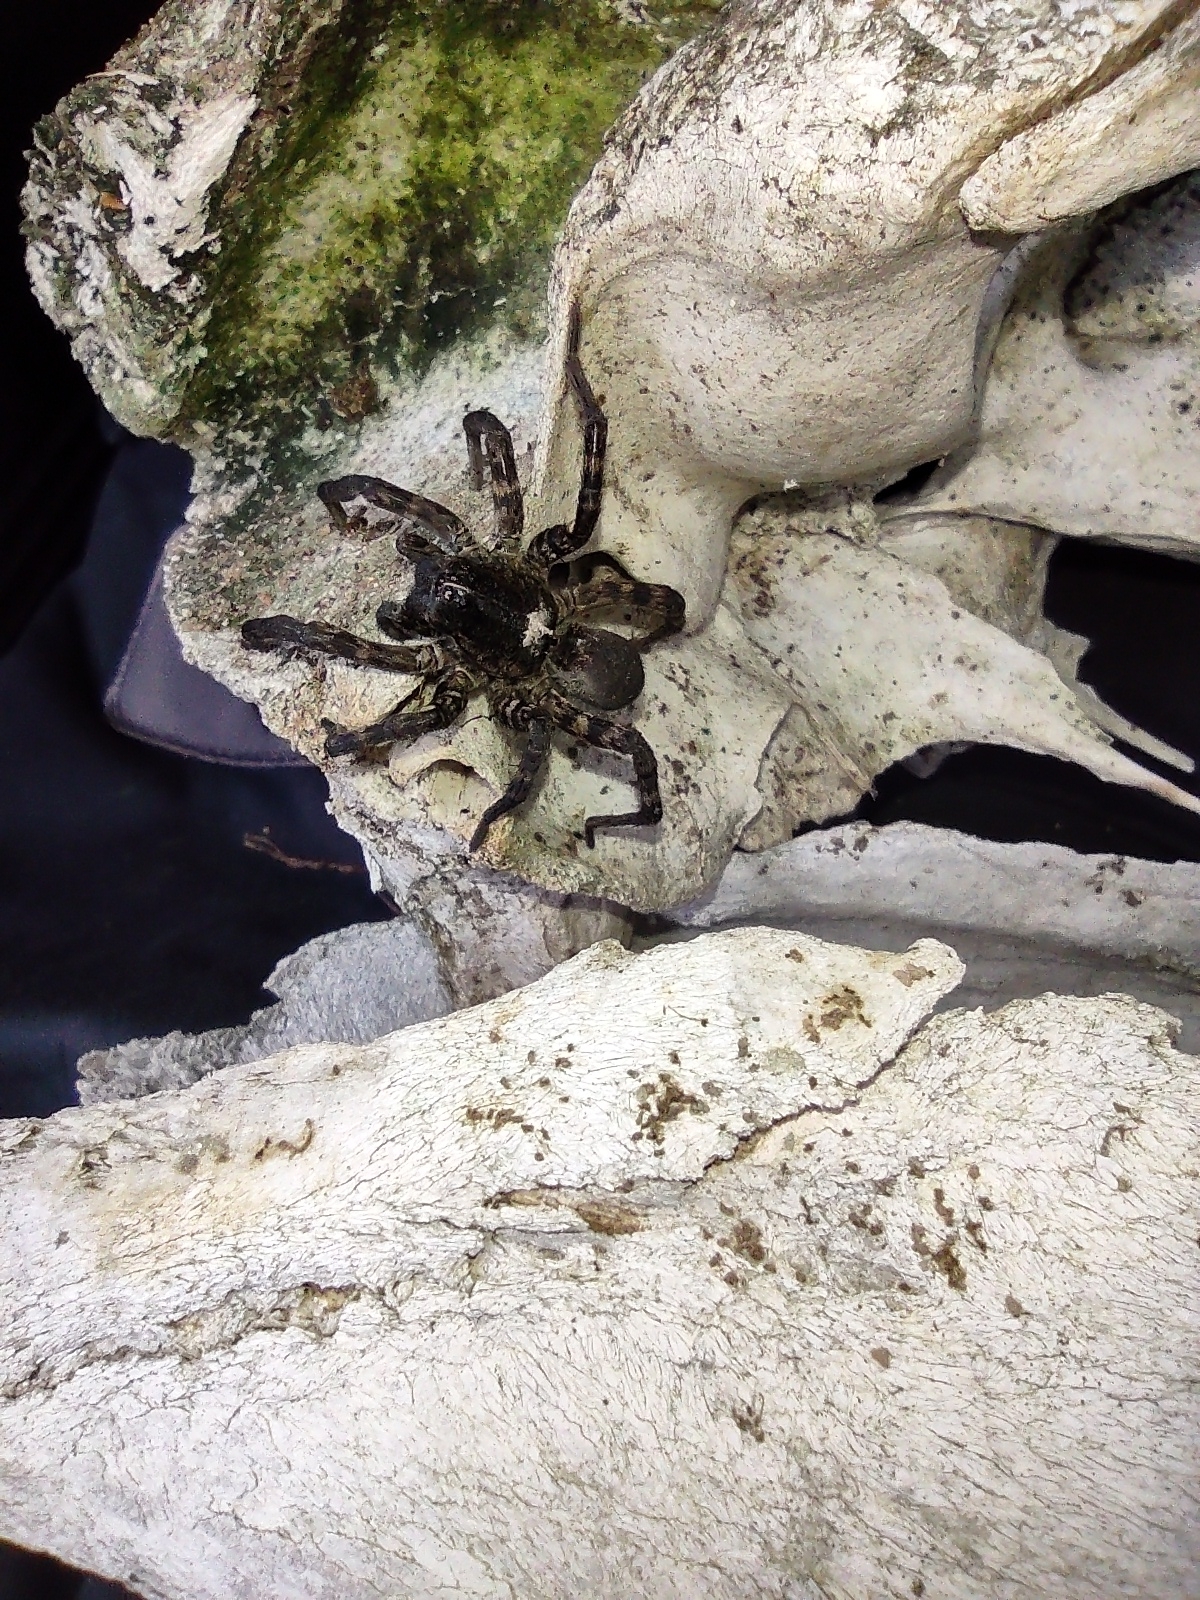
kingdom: Animalia
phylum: Arthropoda
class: Arachnida
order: Araneae
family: Lycosidae
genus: Tigrosa
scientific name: Tigrosa aspersa
